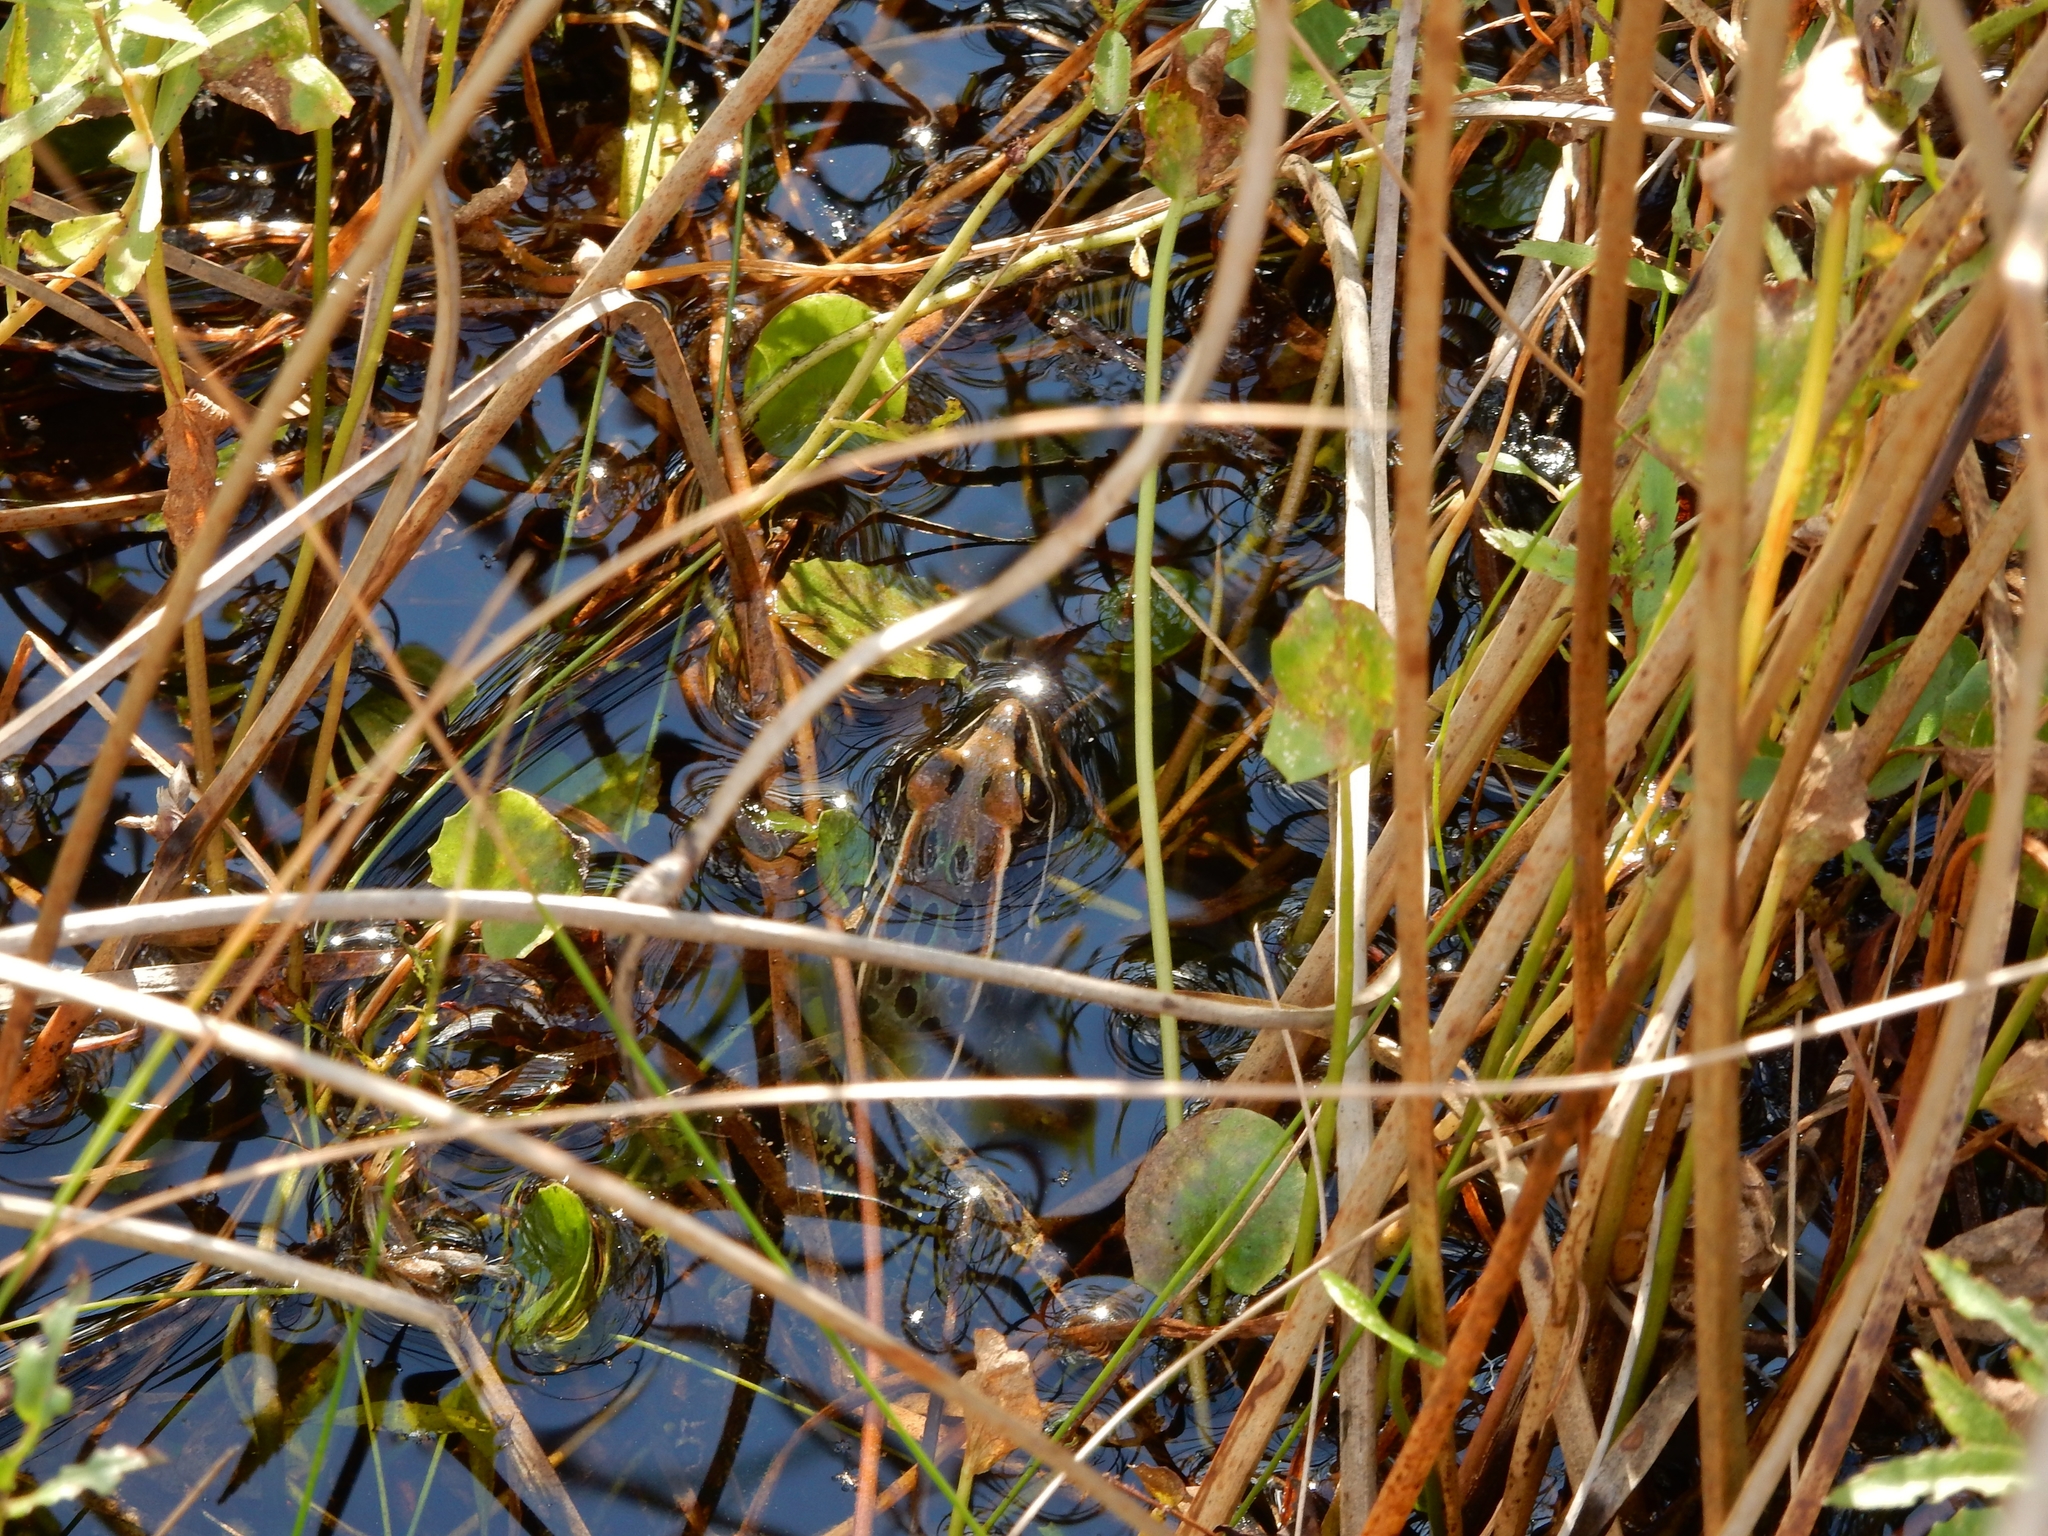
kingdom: Animalia
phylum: Chordata
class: Amphibia
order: Anura
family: Ranidae
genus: Lithobates
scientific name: Lithobates sphenocephalus
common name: Southern leopard frog
